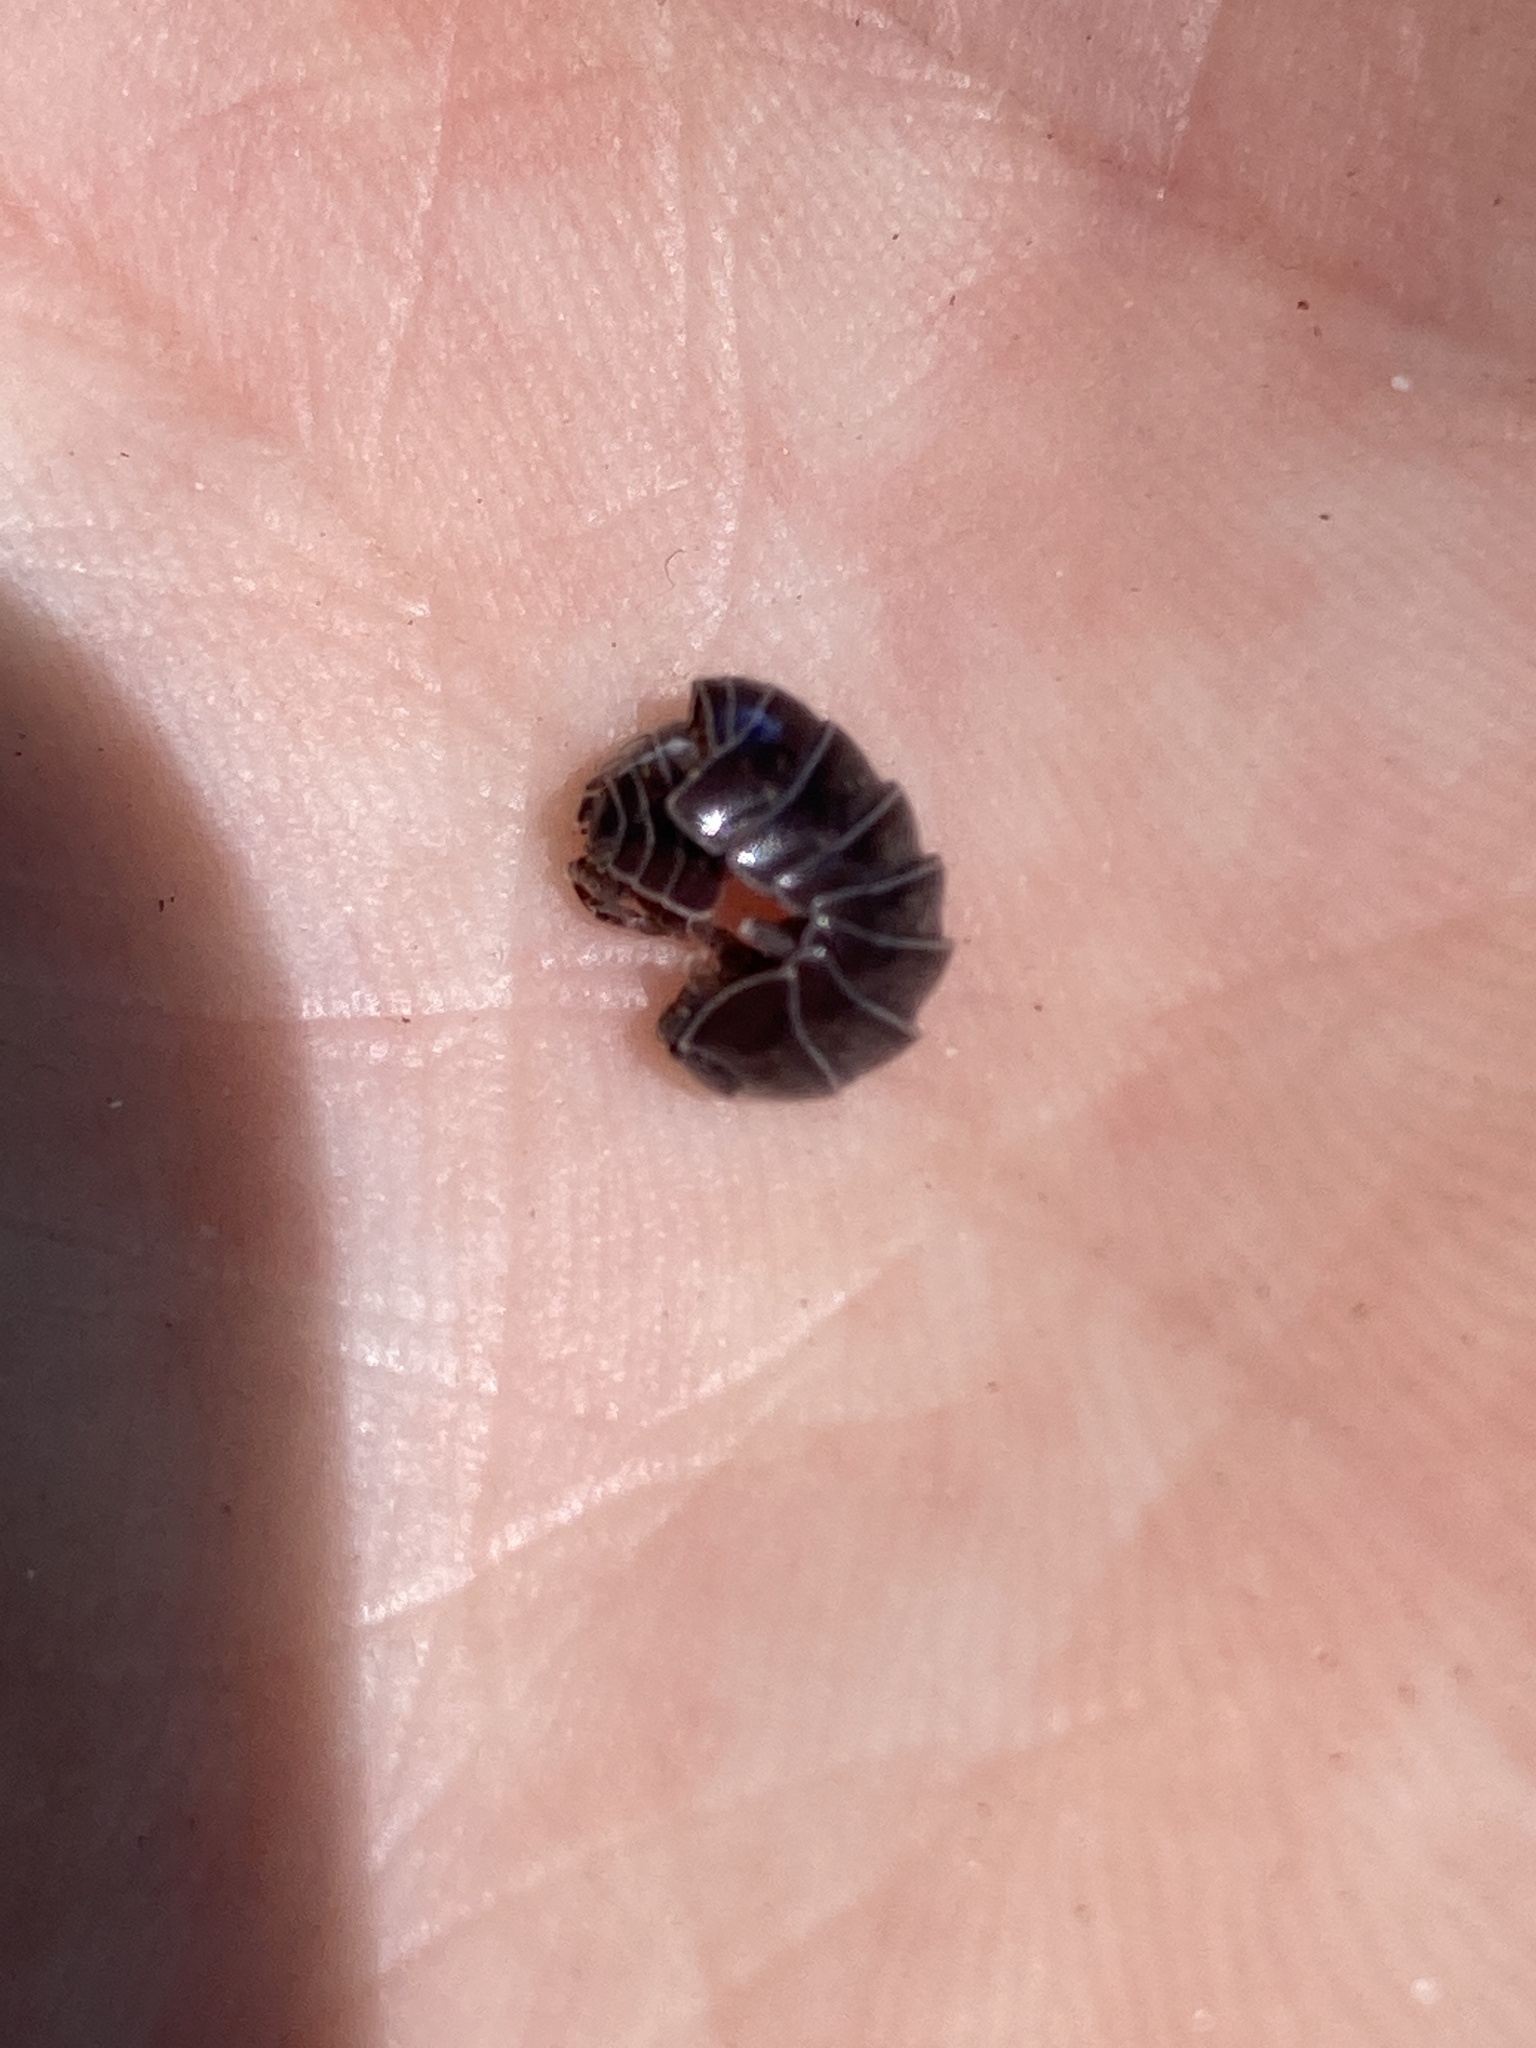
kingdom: Animalia
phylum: Arthropoda
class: Malacostraca
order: Isopoda
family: Armadillidiidae
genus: Armadillidium
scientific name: Armadillidium vulgare
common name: Common pill woodlouse
